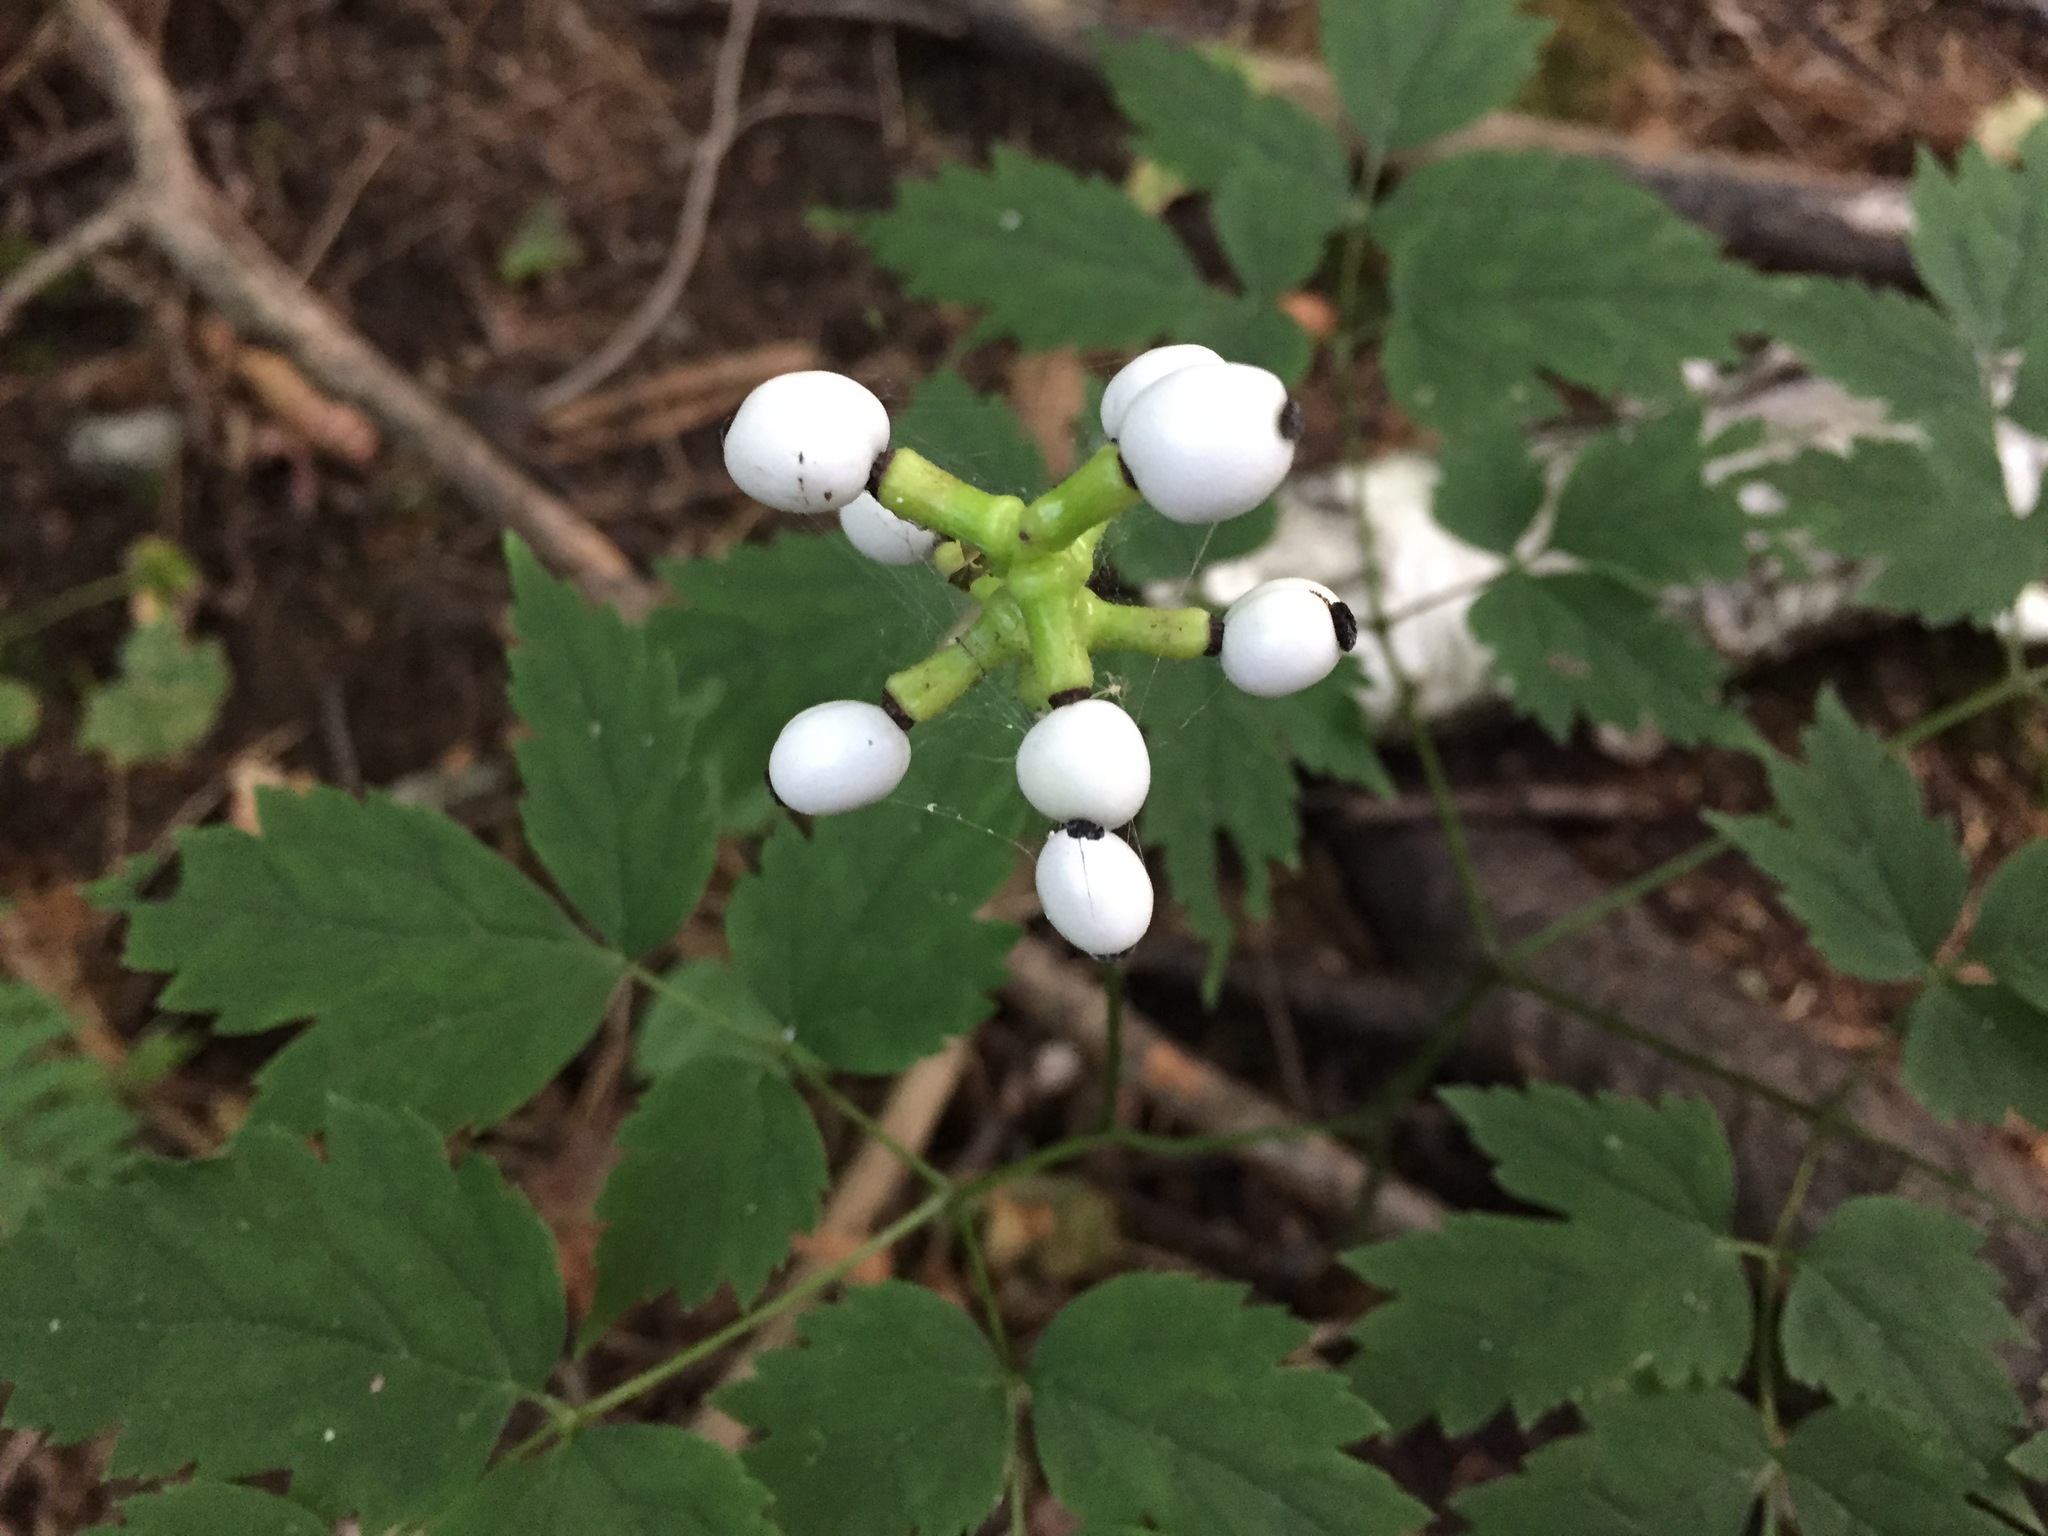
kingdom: Plantae
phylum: Tracheophyta
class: Magnoliopsida
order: Ranunculales
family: Ranunculaceae
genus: Actaea
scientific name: Actaea pachypoda
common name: Doll's-eyes
